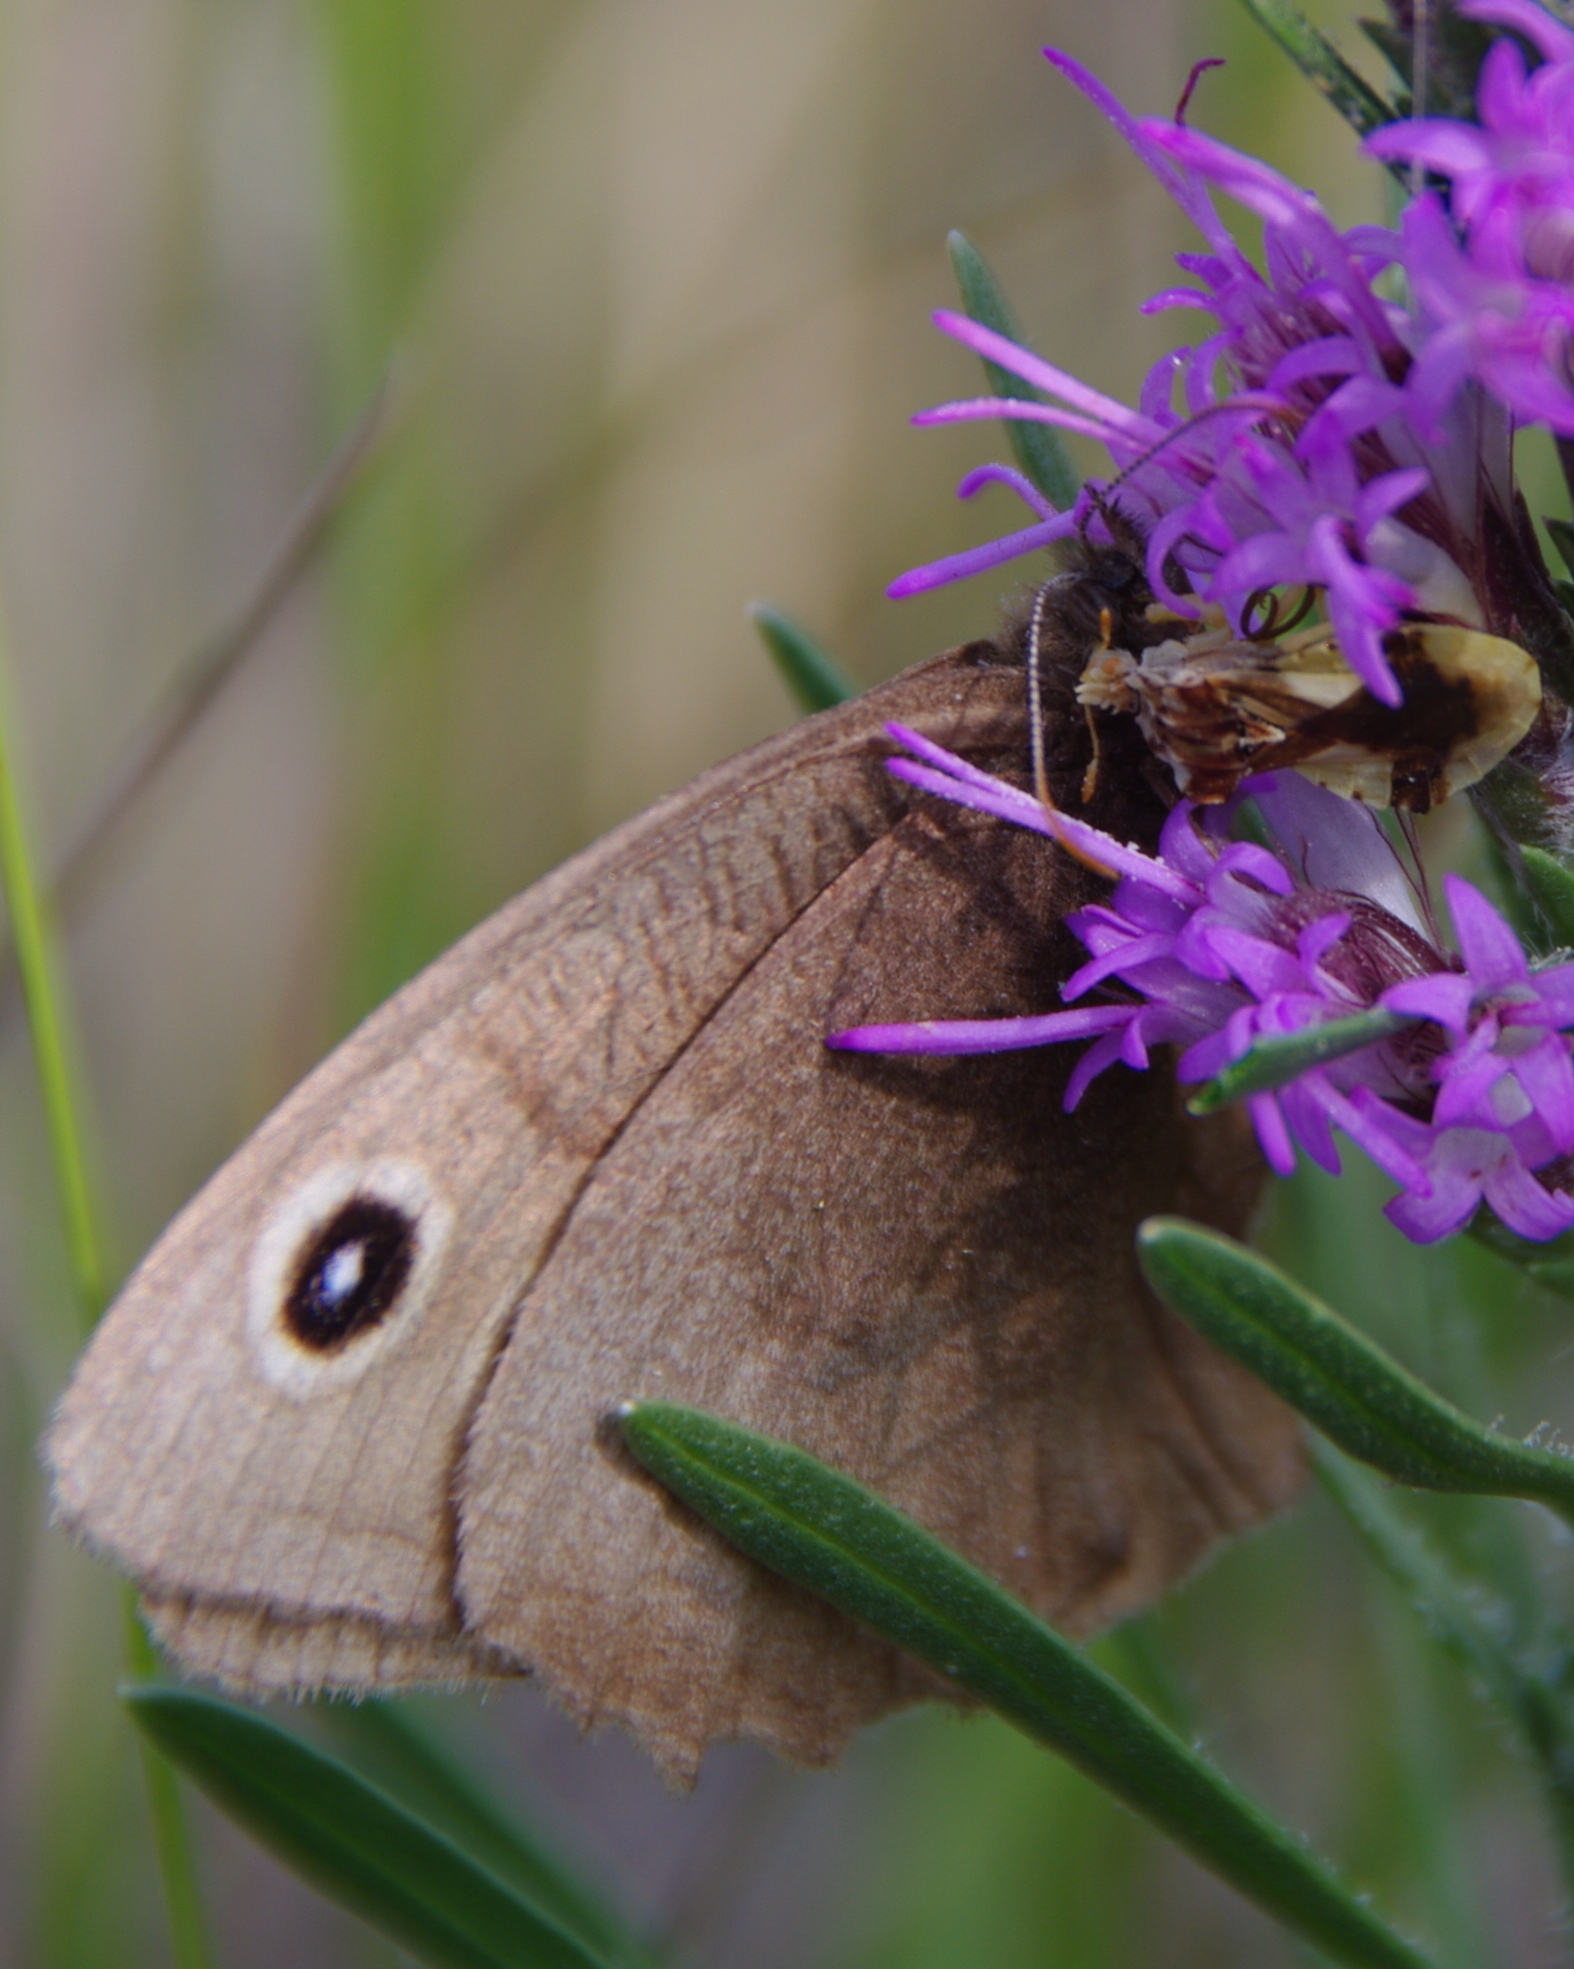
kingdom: Animalia
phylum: Arthropoda
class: Insecta
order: Hemiptera
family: Reduviidae
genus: Phymata
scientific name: Phymata americana
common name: Jagged ambush bug
